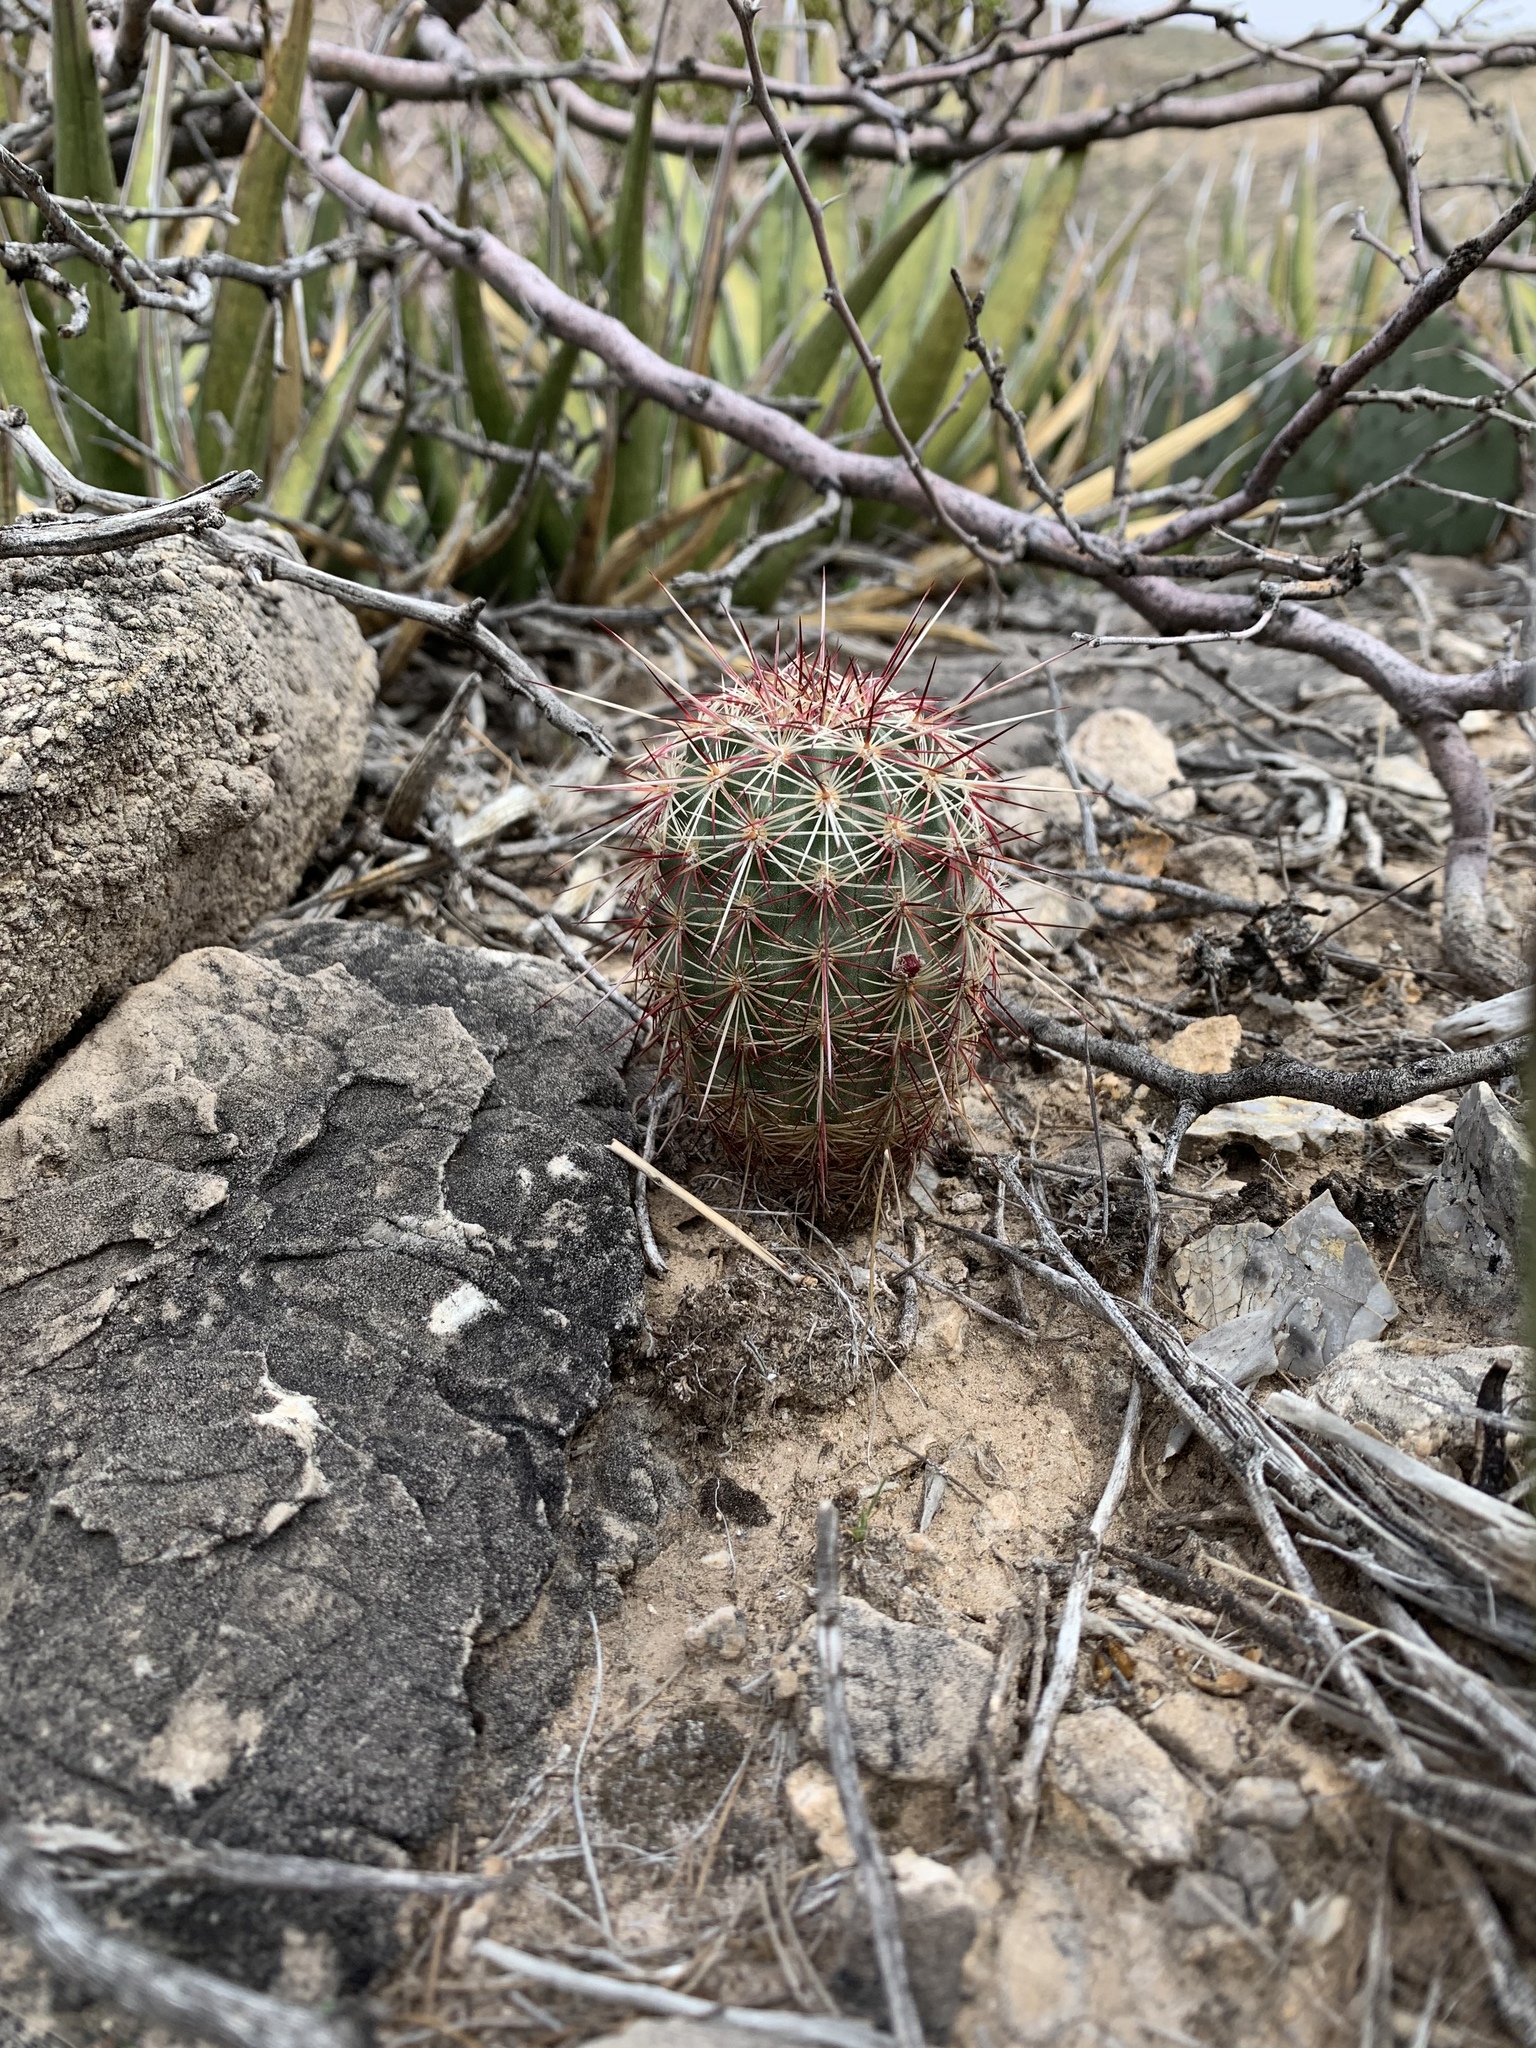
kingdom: Plantae
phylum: Tracheophyta
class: Magnoliopsida
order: Caryophyllales
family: Cactaceae
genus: Echinocereus
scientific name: Echinocereus viridiflorus
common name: Nylon hedgehog cactus
